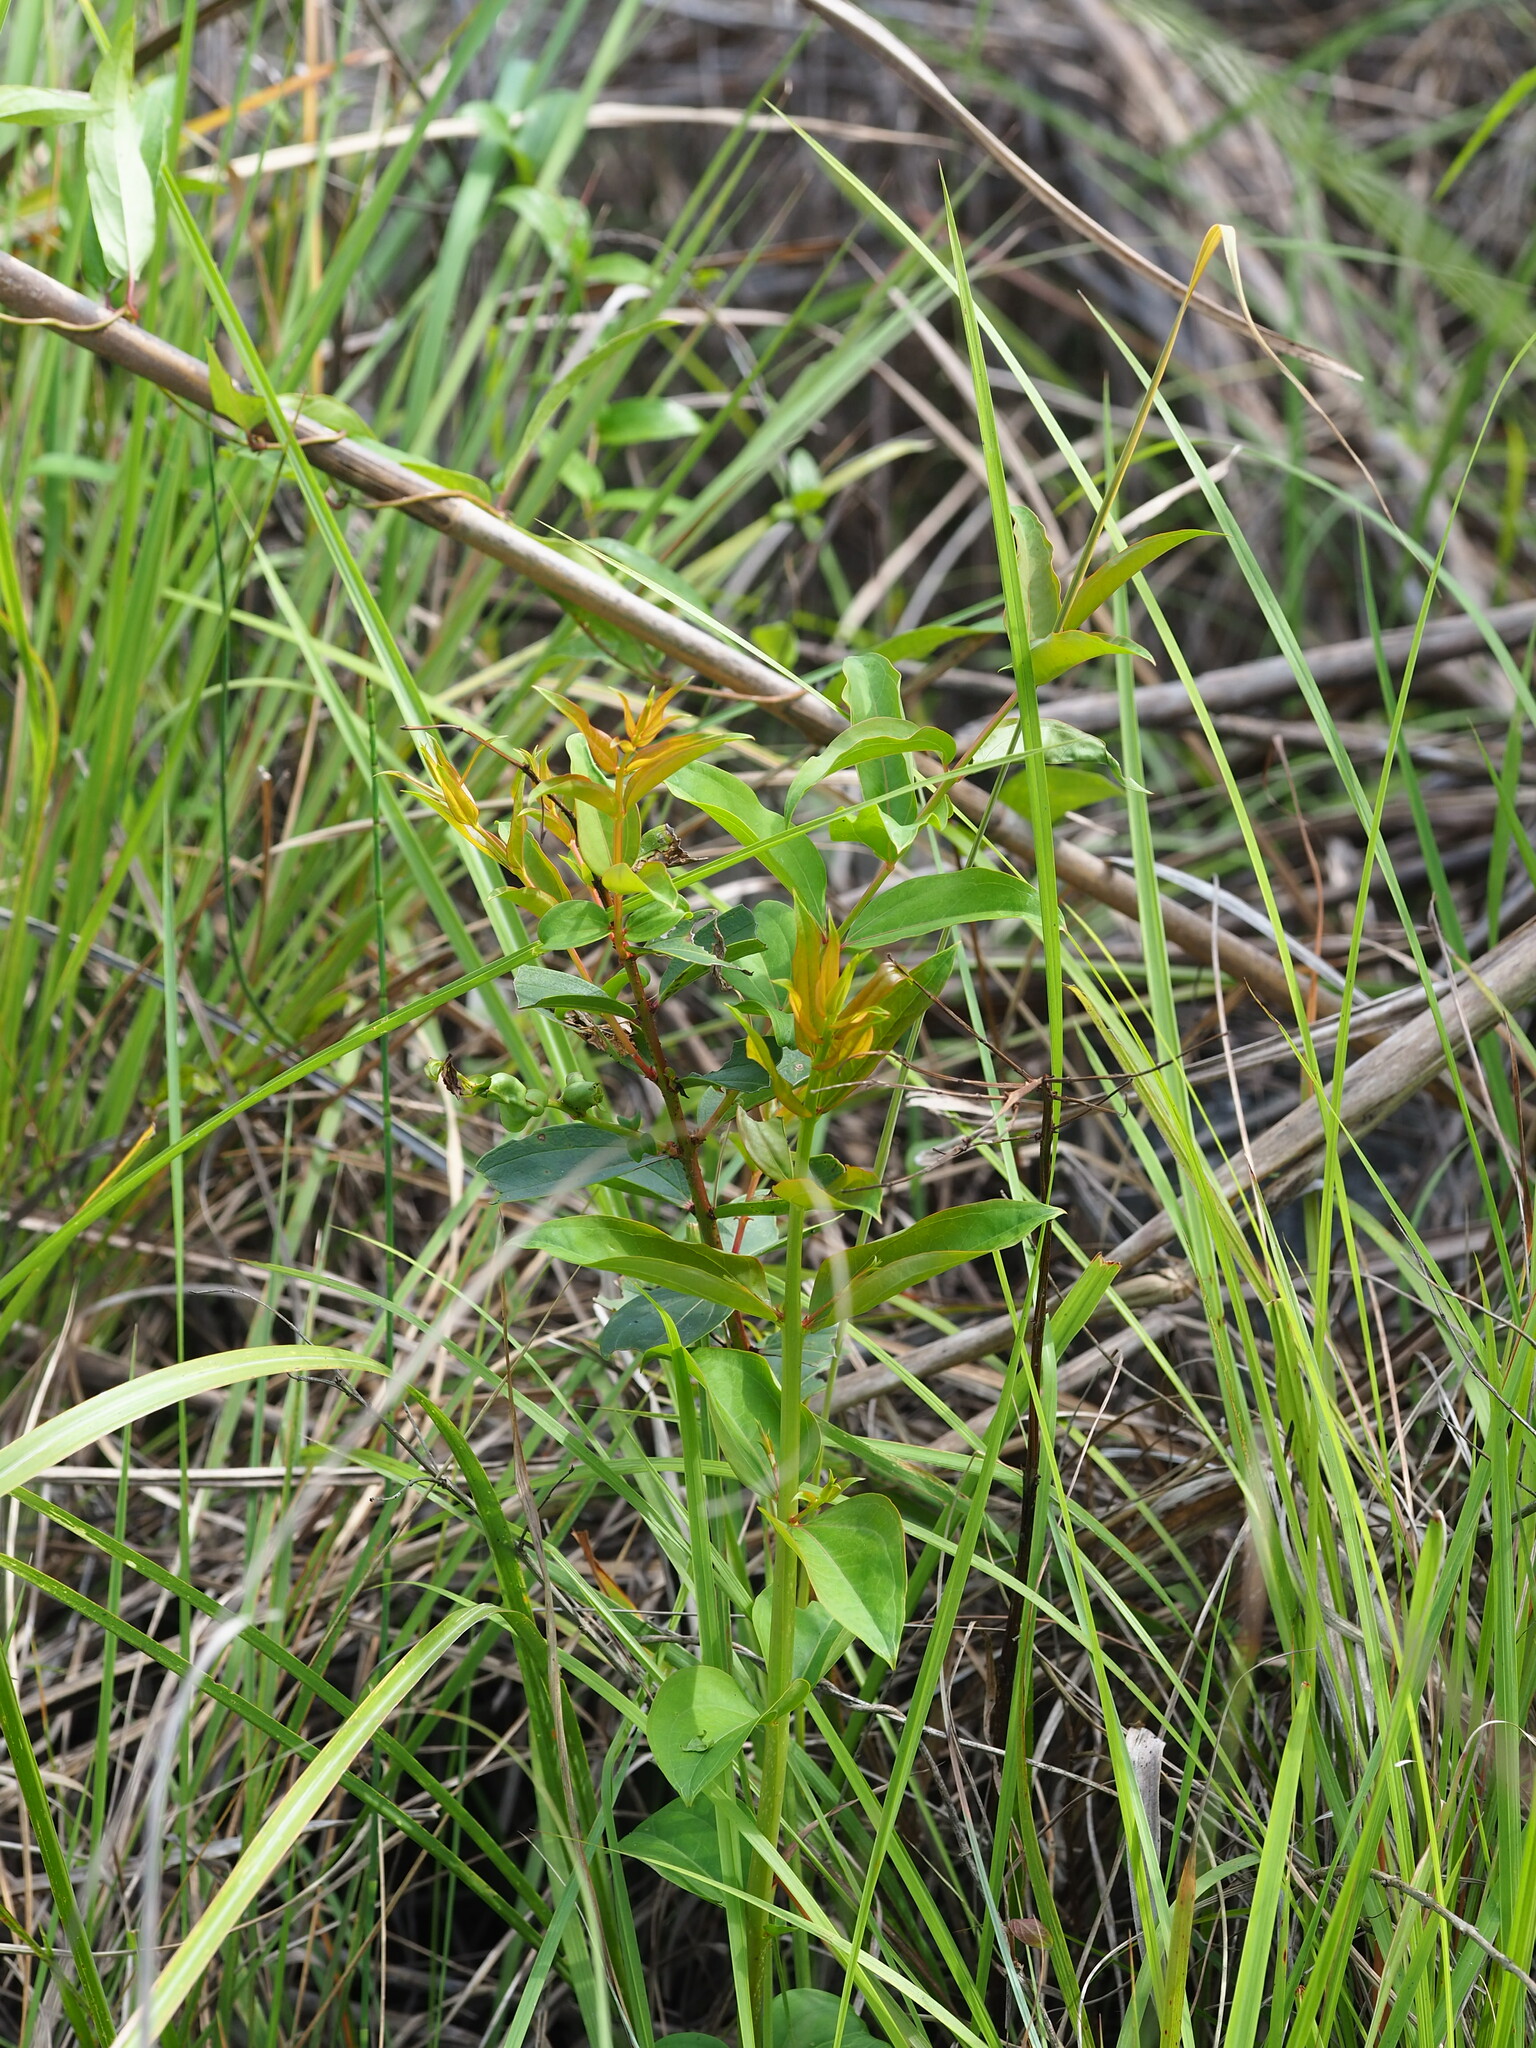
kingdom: Plantae
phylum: Tracheophyta
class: Magnoliopsida
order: Cucurbitales
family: Coriariaceae
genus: Coriaria
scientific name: Coriaria japonica
